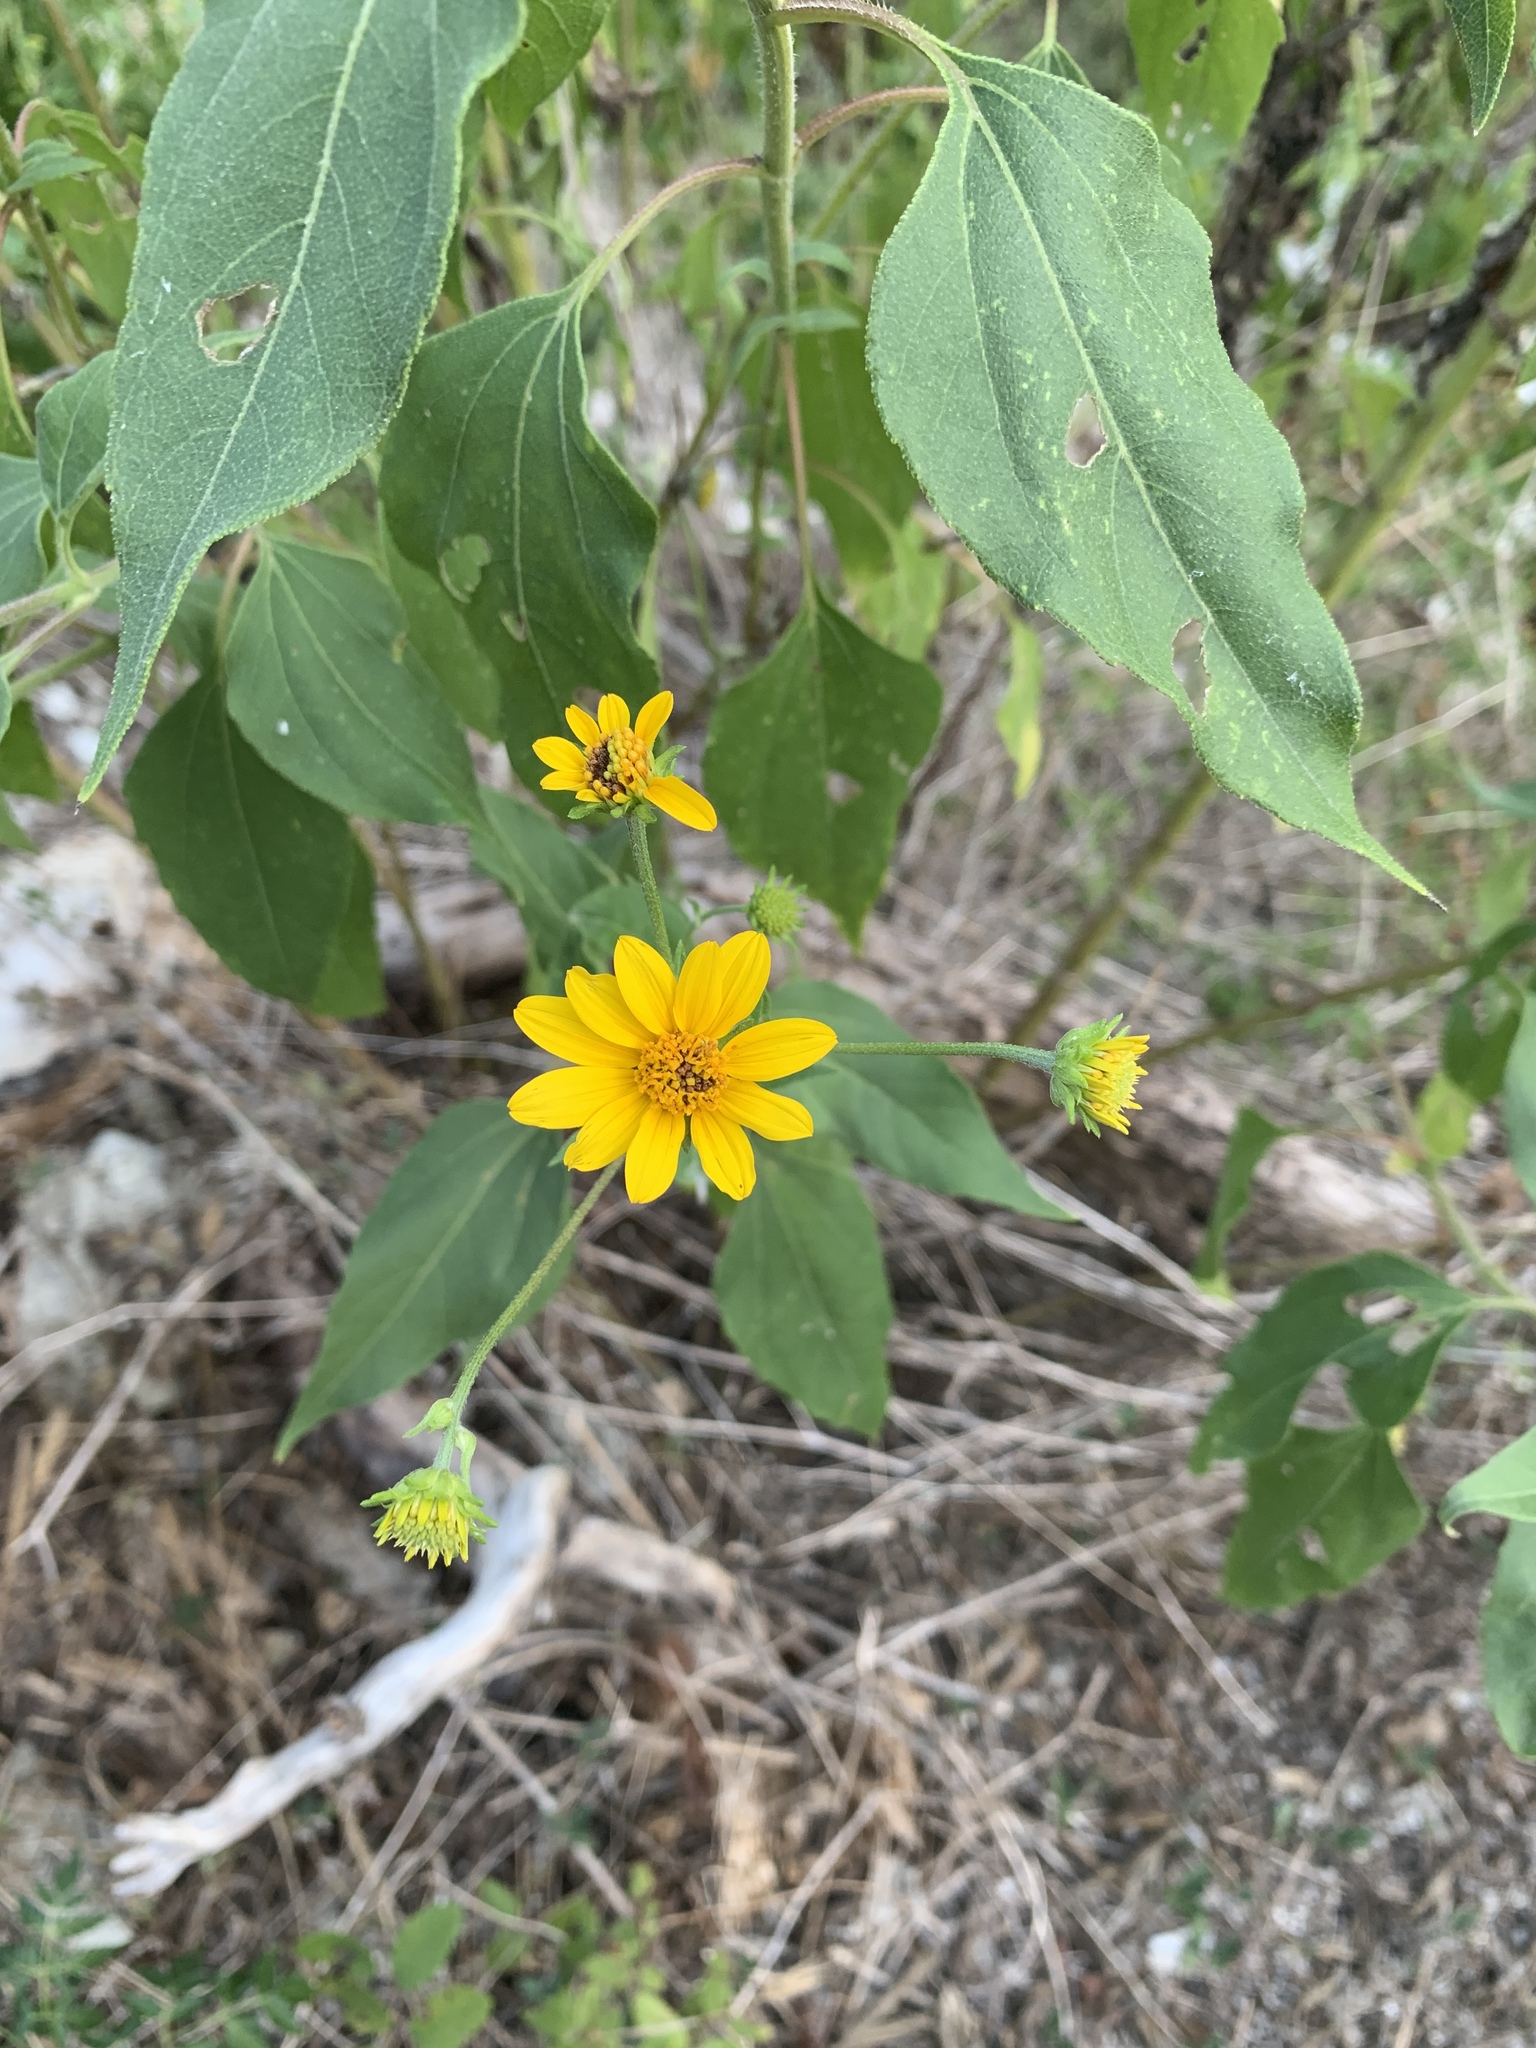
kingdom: Plantae
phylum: Tracheophyta
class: Magnoliopsida
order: Asterales
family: Asteraceae
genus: Viguiera
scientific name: Viguiera dentata
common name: Toothleaf
